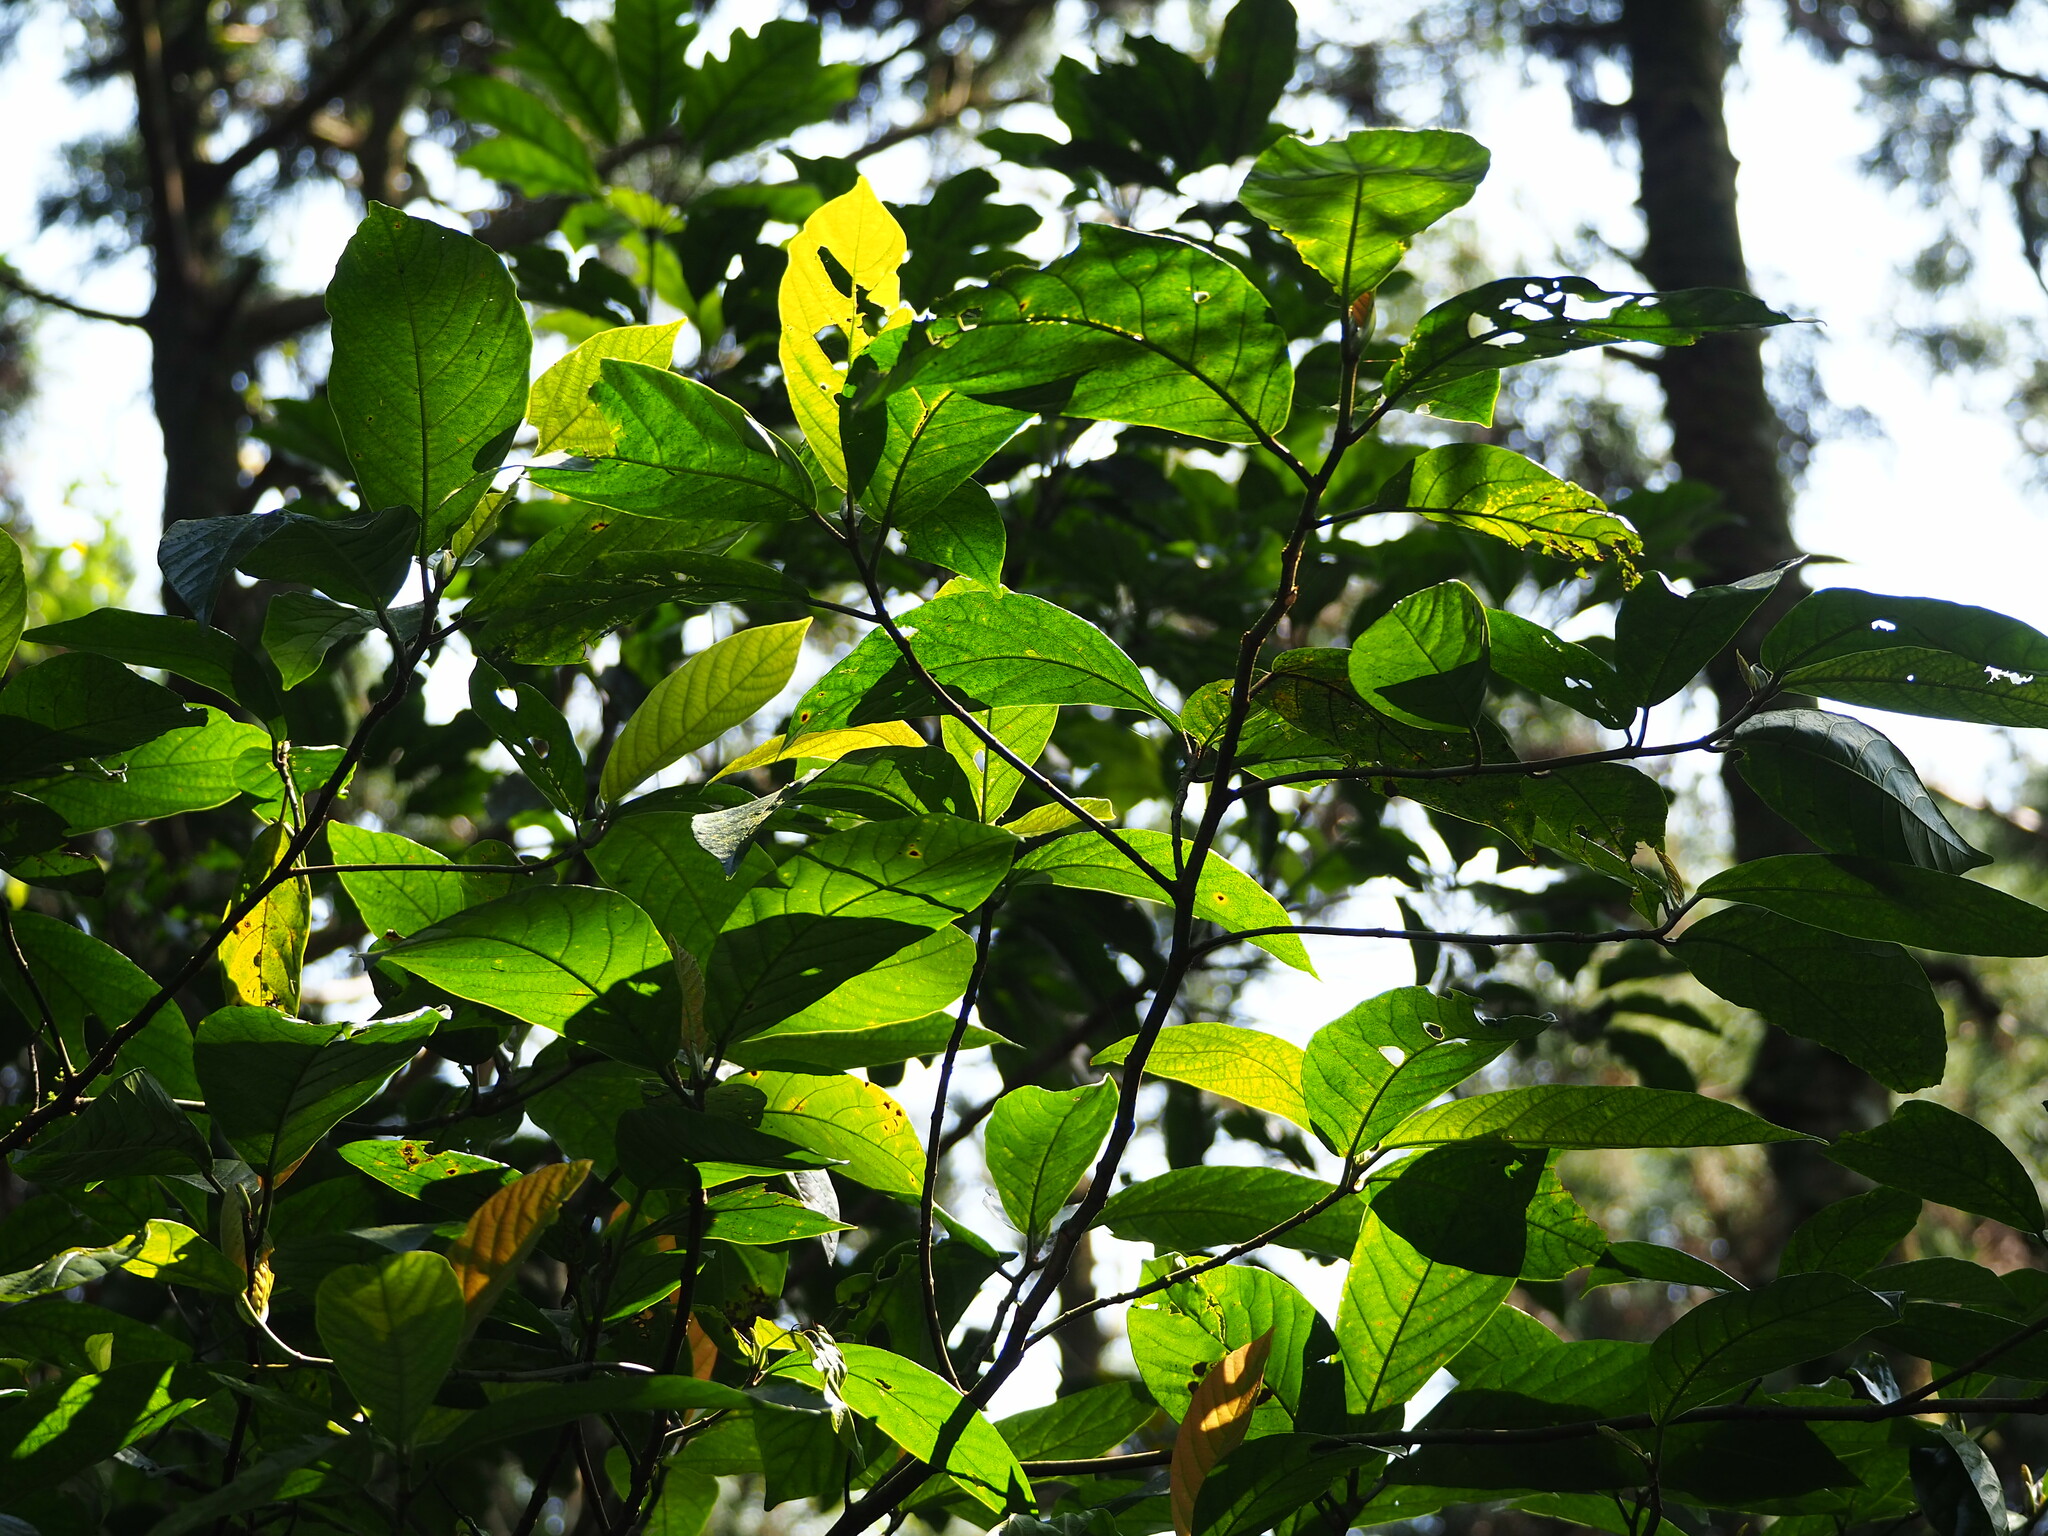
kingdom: Plantae
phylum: Tracheophyta
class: Magnoliopsida
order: Rosales
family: Moraceae
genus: Ficus
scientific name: Ficus benguetensis
